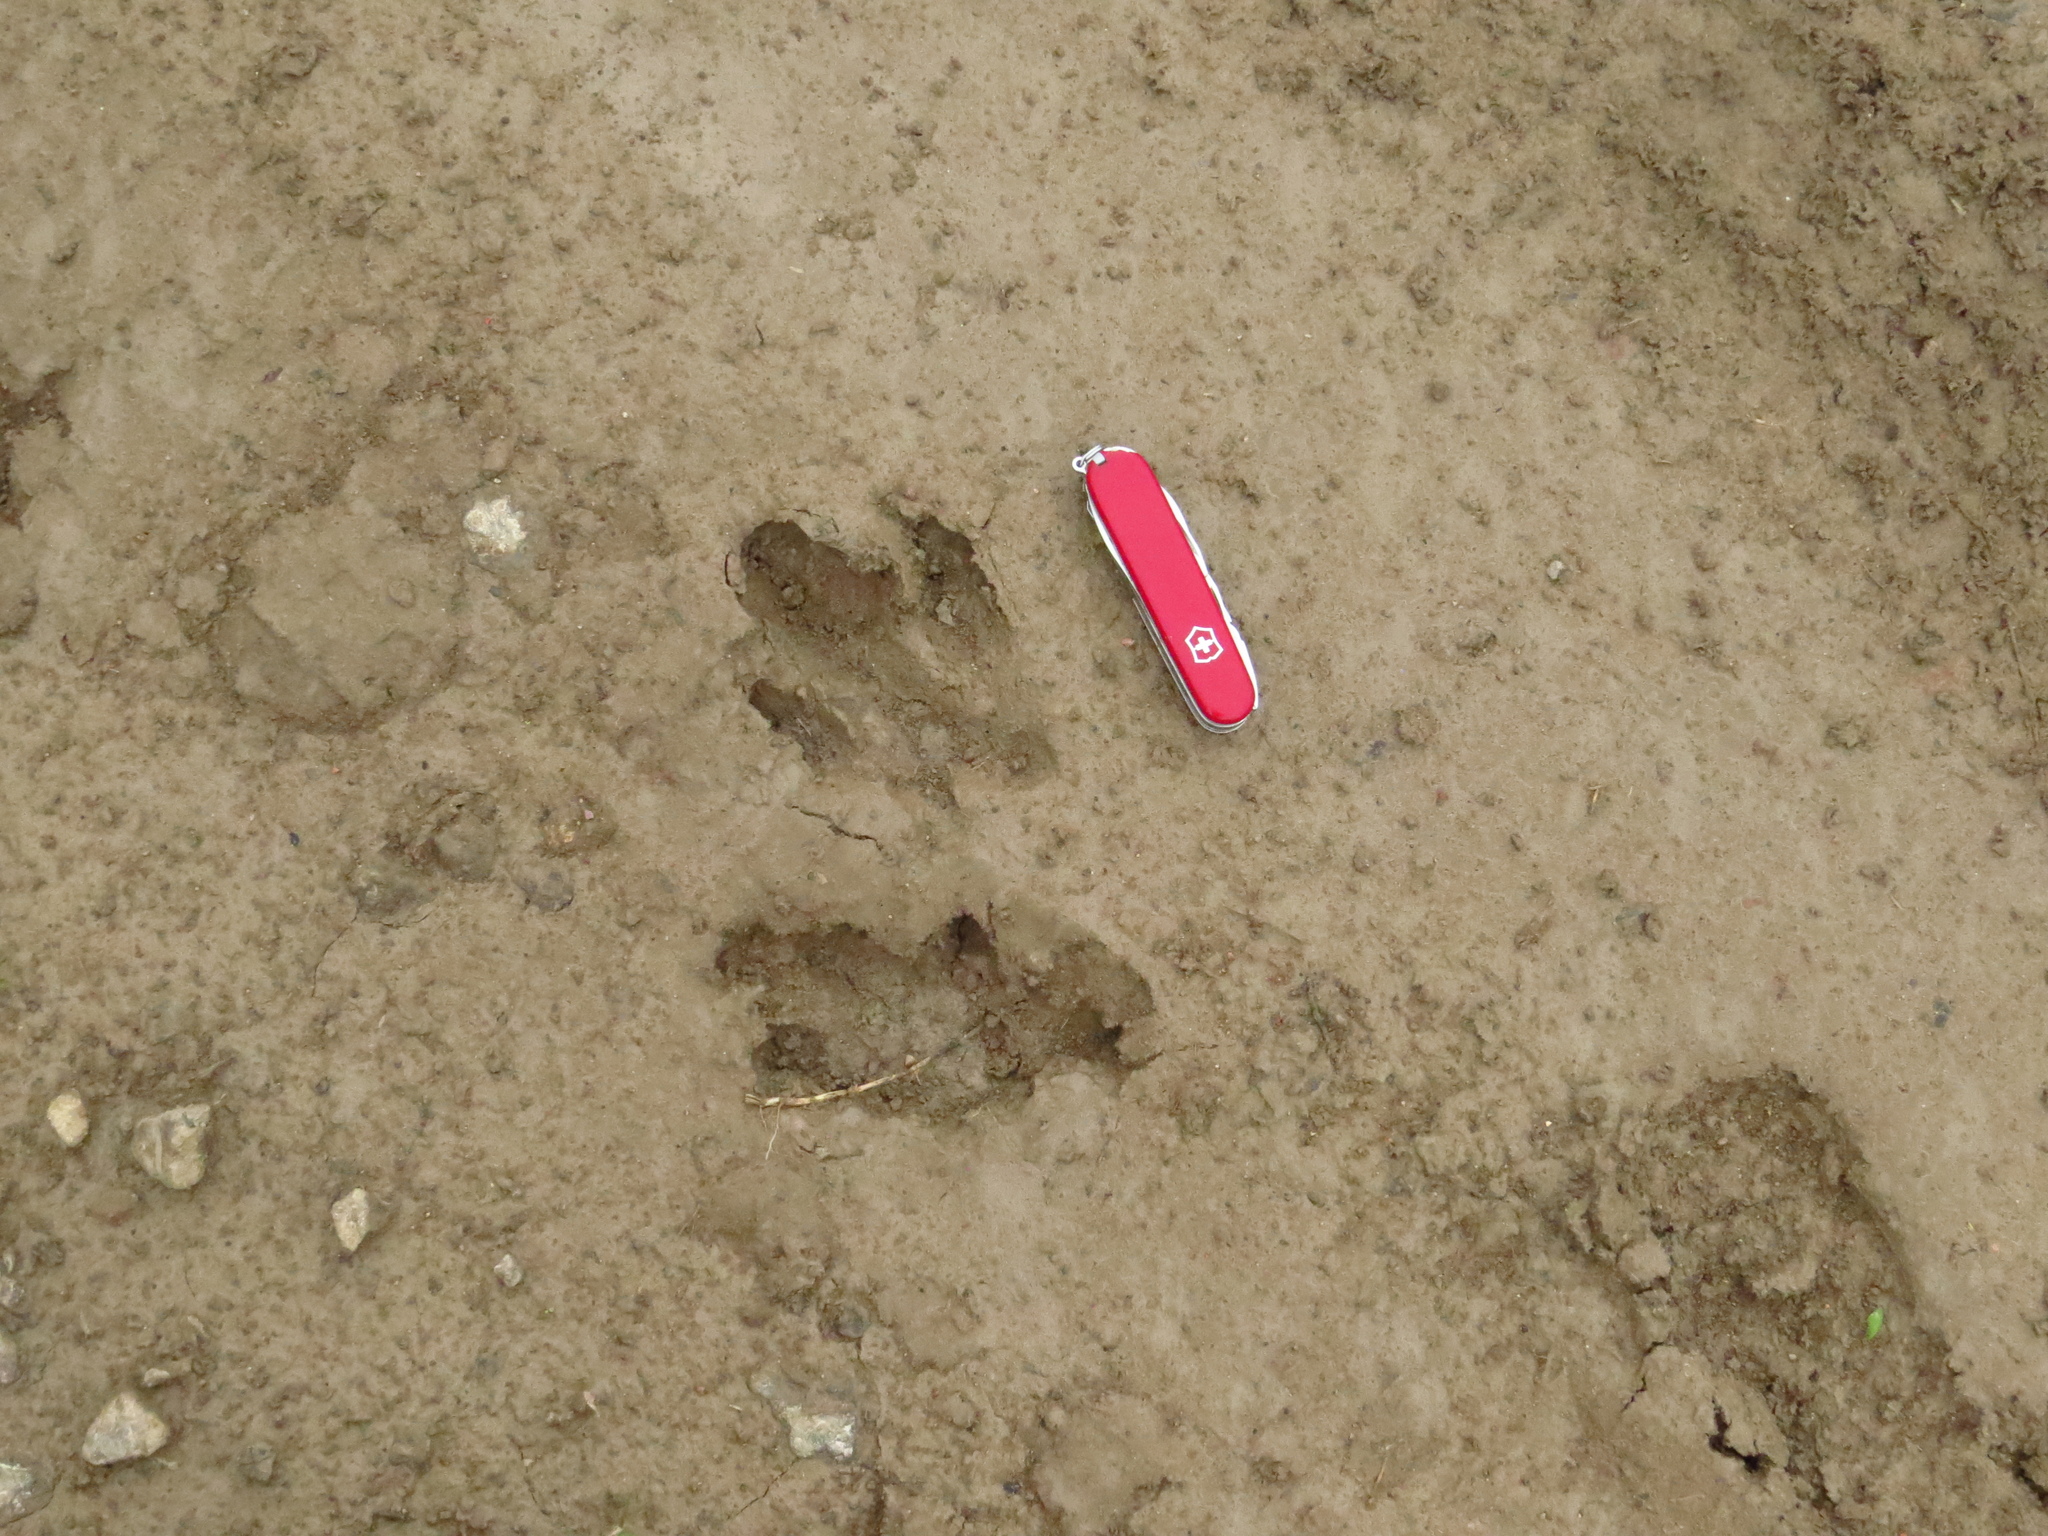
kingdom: Animalia
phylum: Chordata
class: Mammalia
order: Rodentia
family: Caviidae
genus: Hydrochoerus
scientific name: Hydrochoerus hydrochaeris
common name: Capybara
